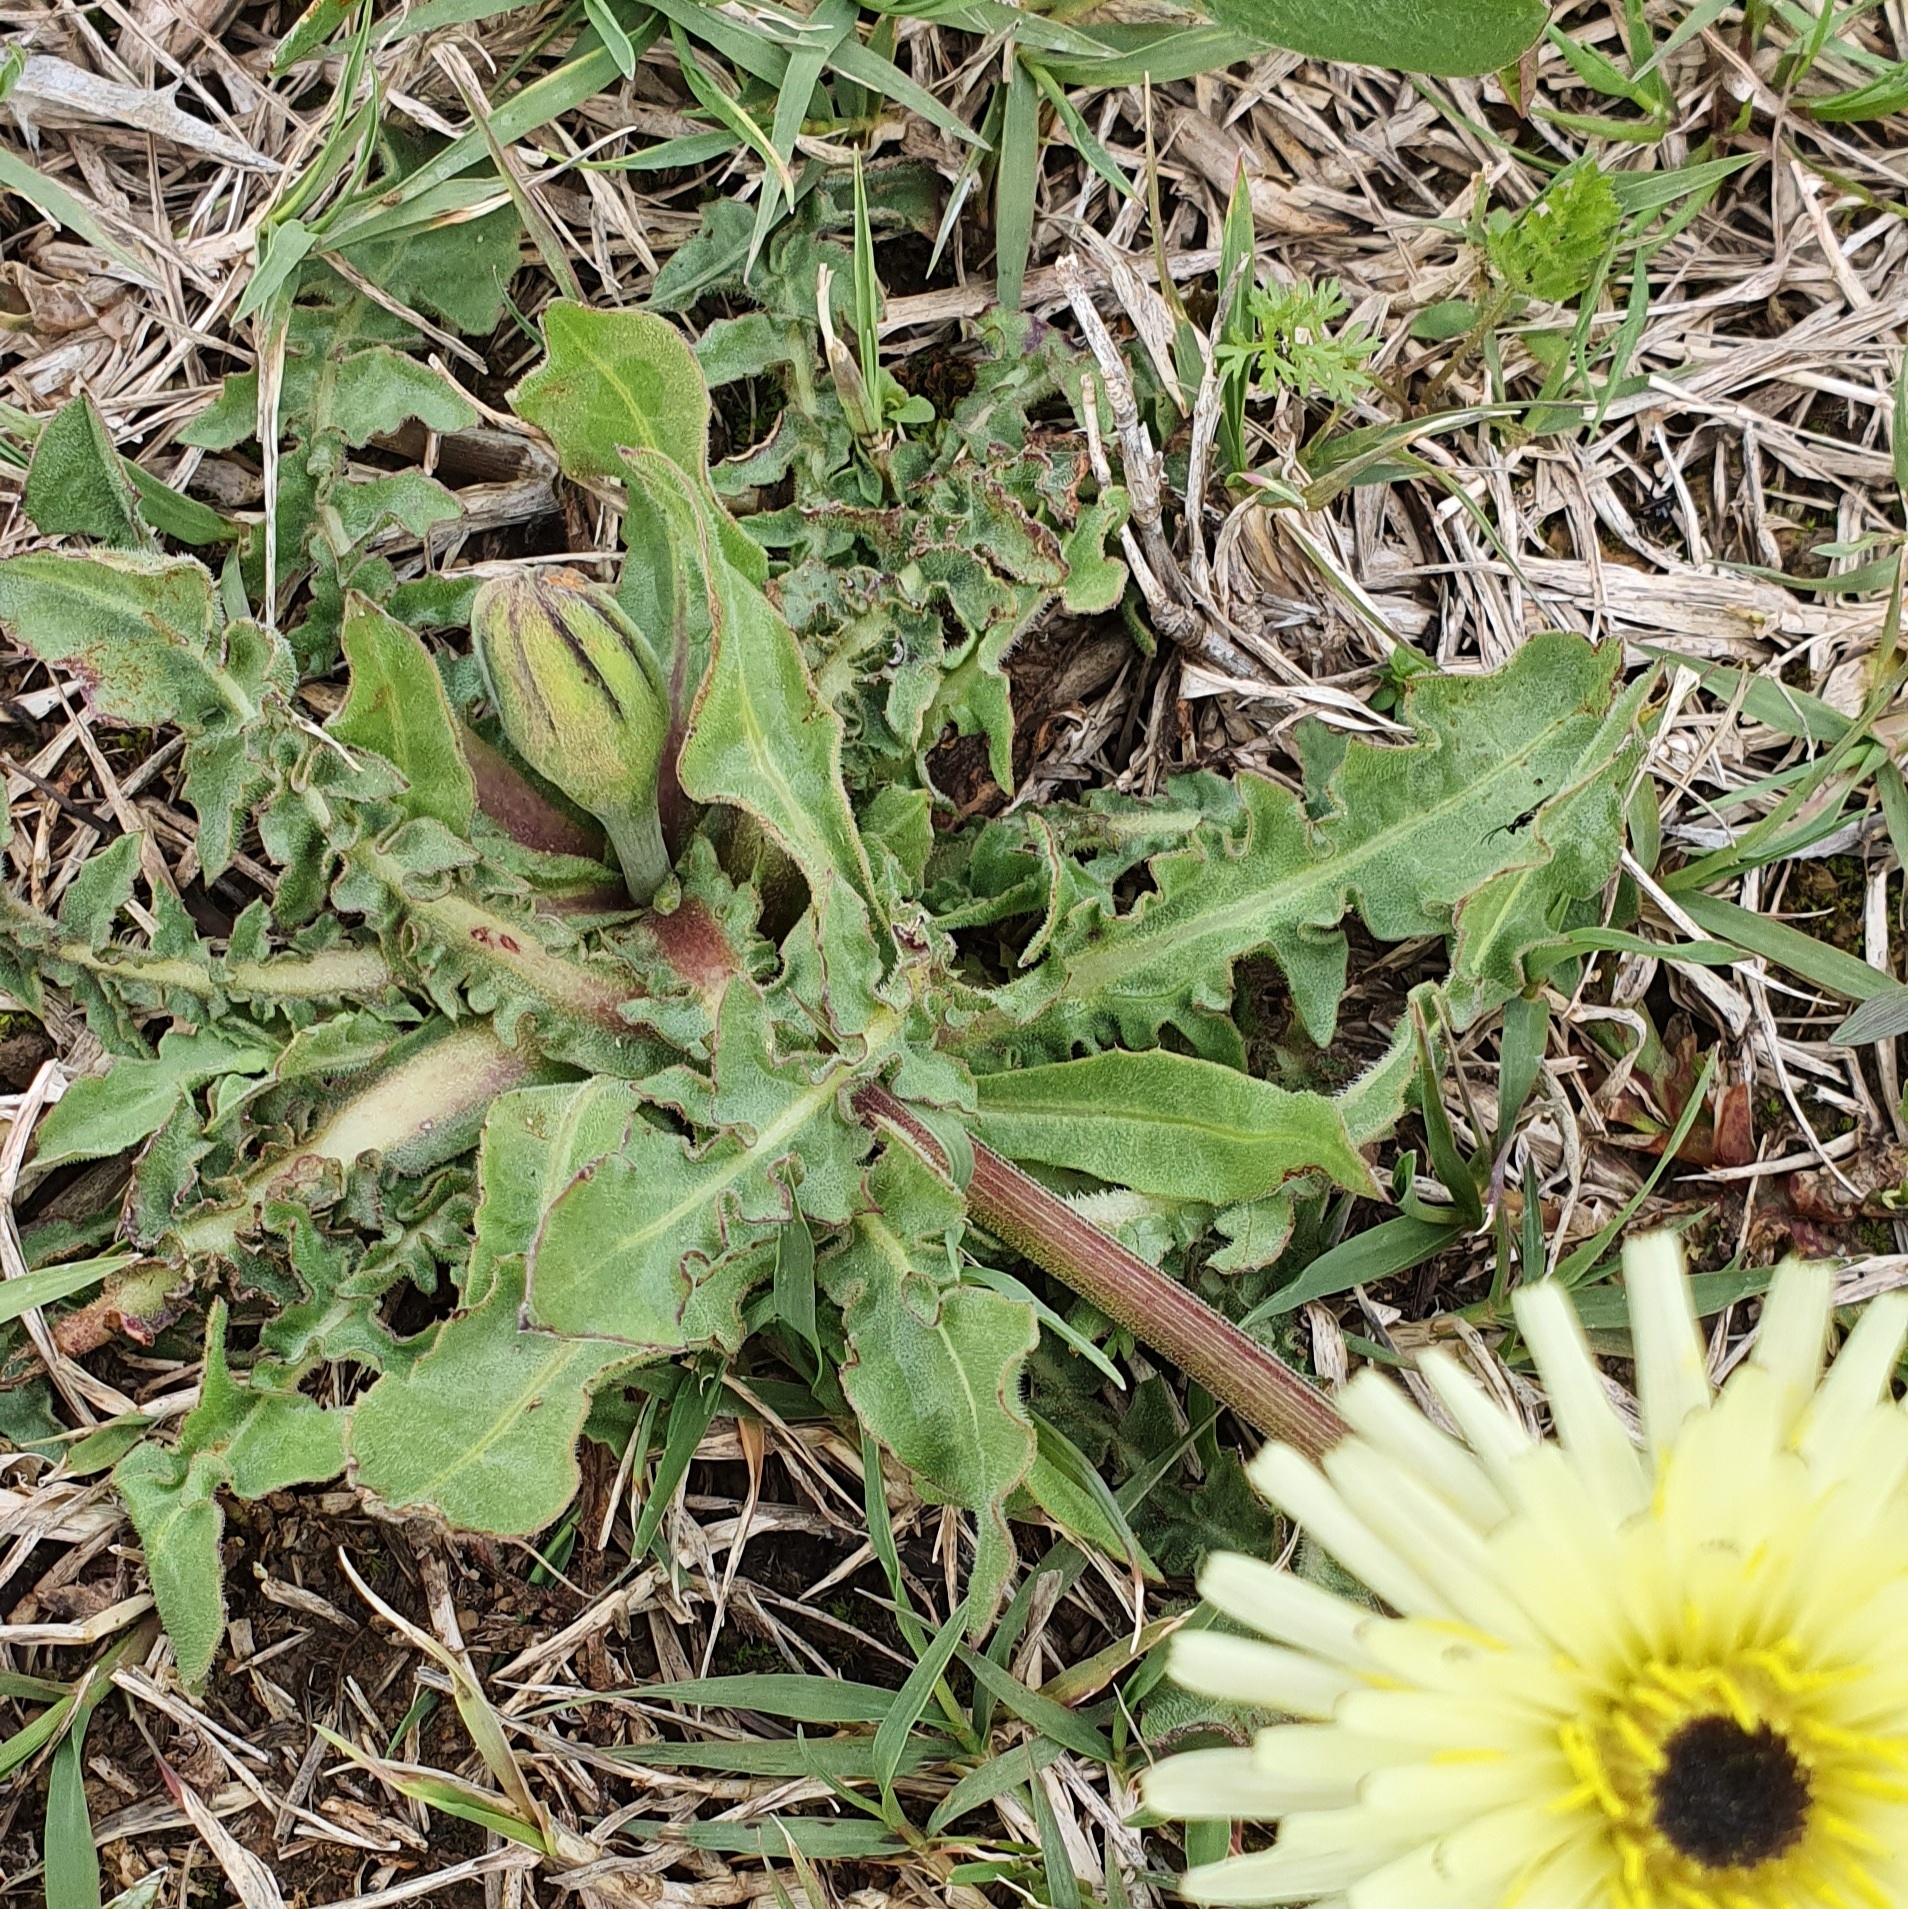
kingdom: Plantae
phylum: Tracheophyta
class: Magnoliopsida
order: Asterales
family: Asteraceae
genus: Urospermum
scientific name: Urospermum dalechampii
